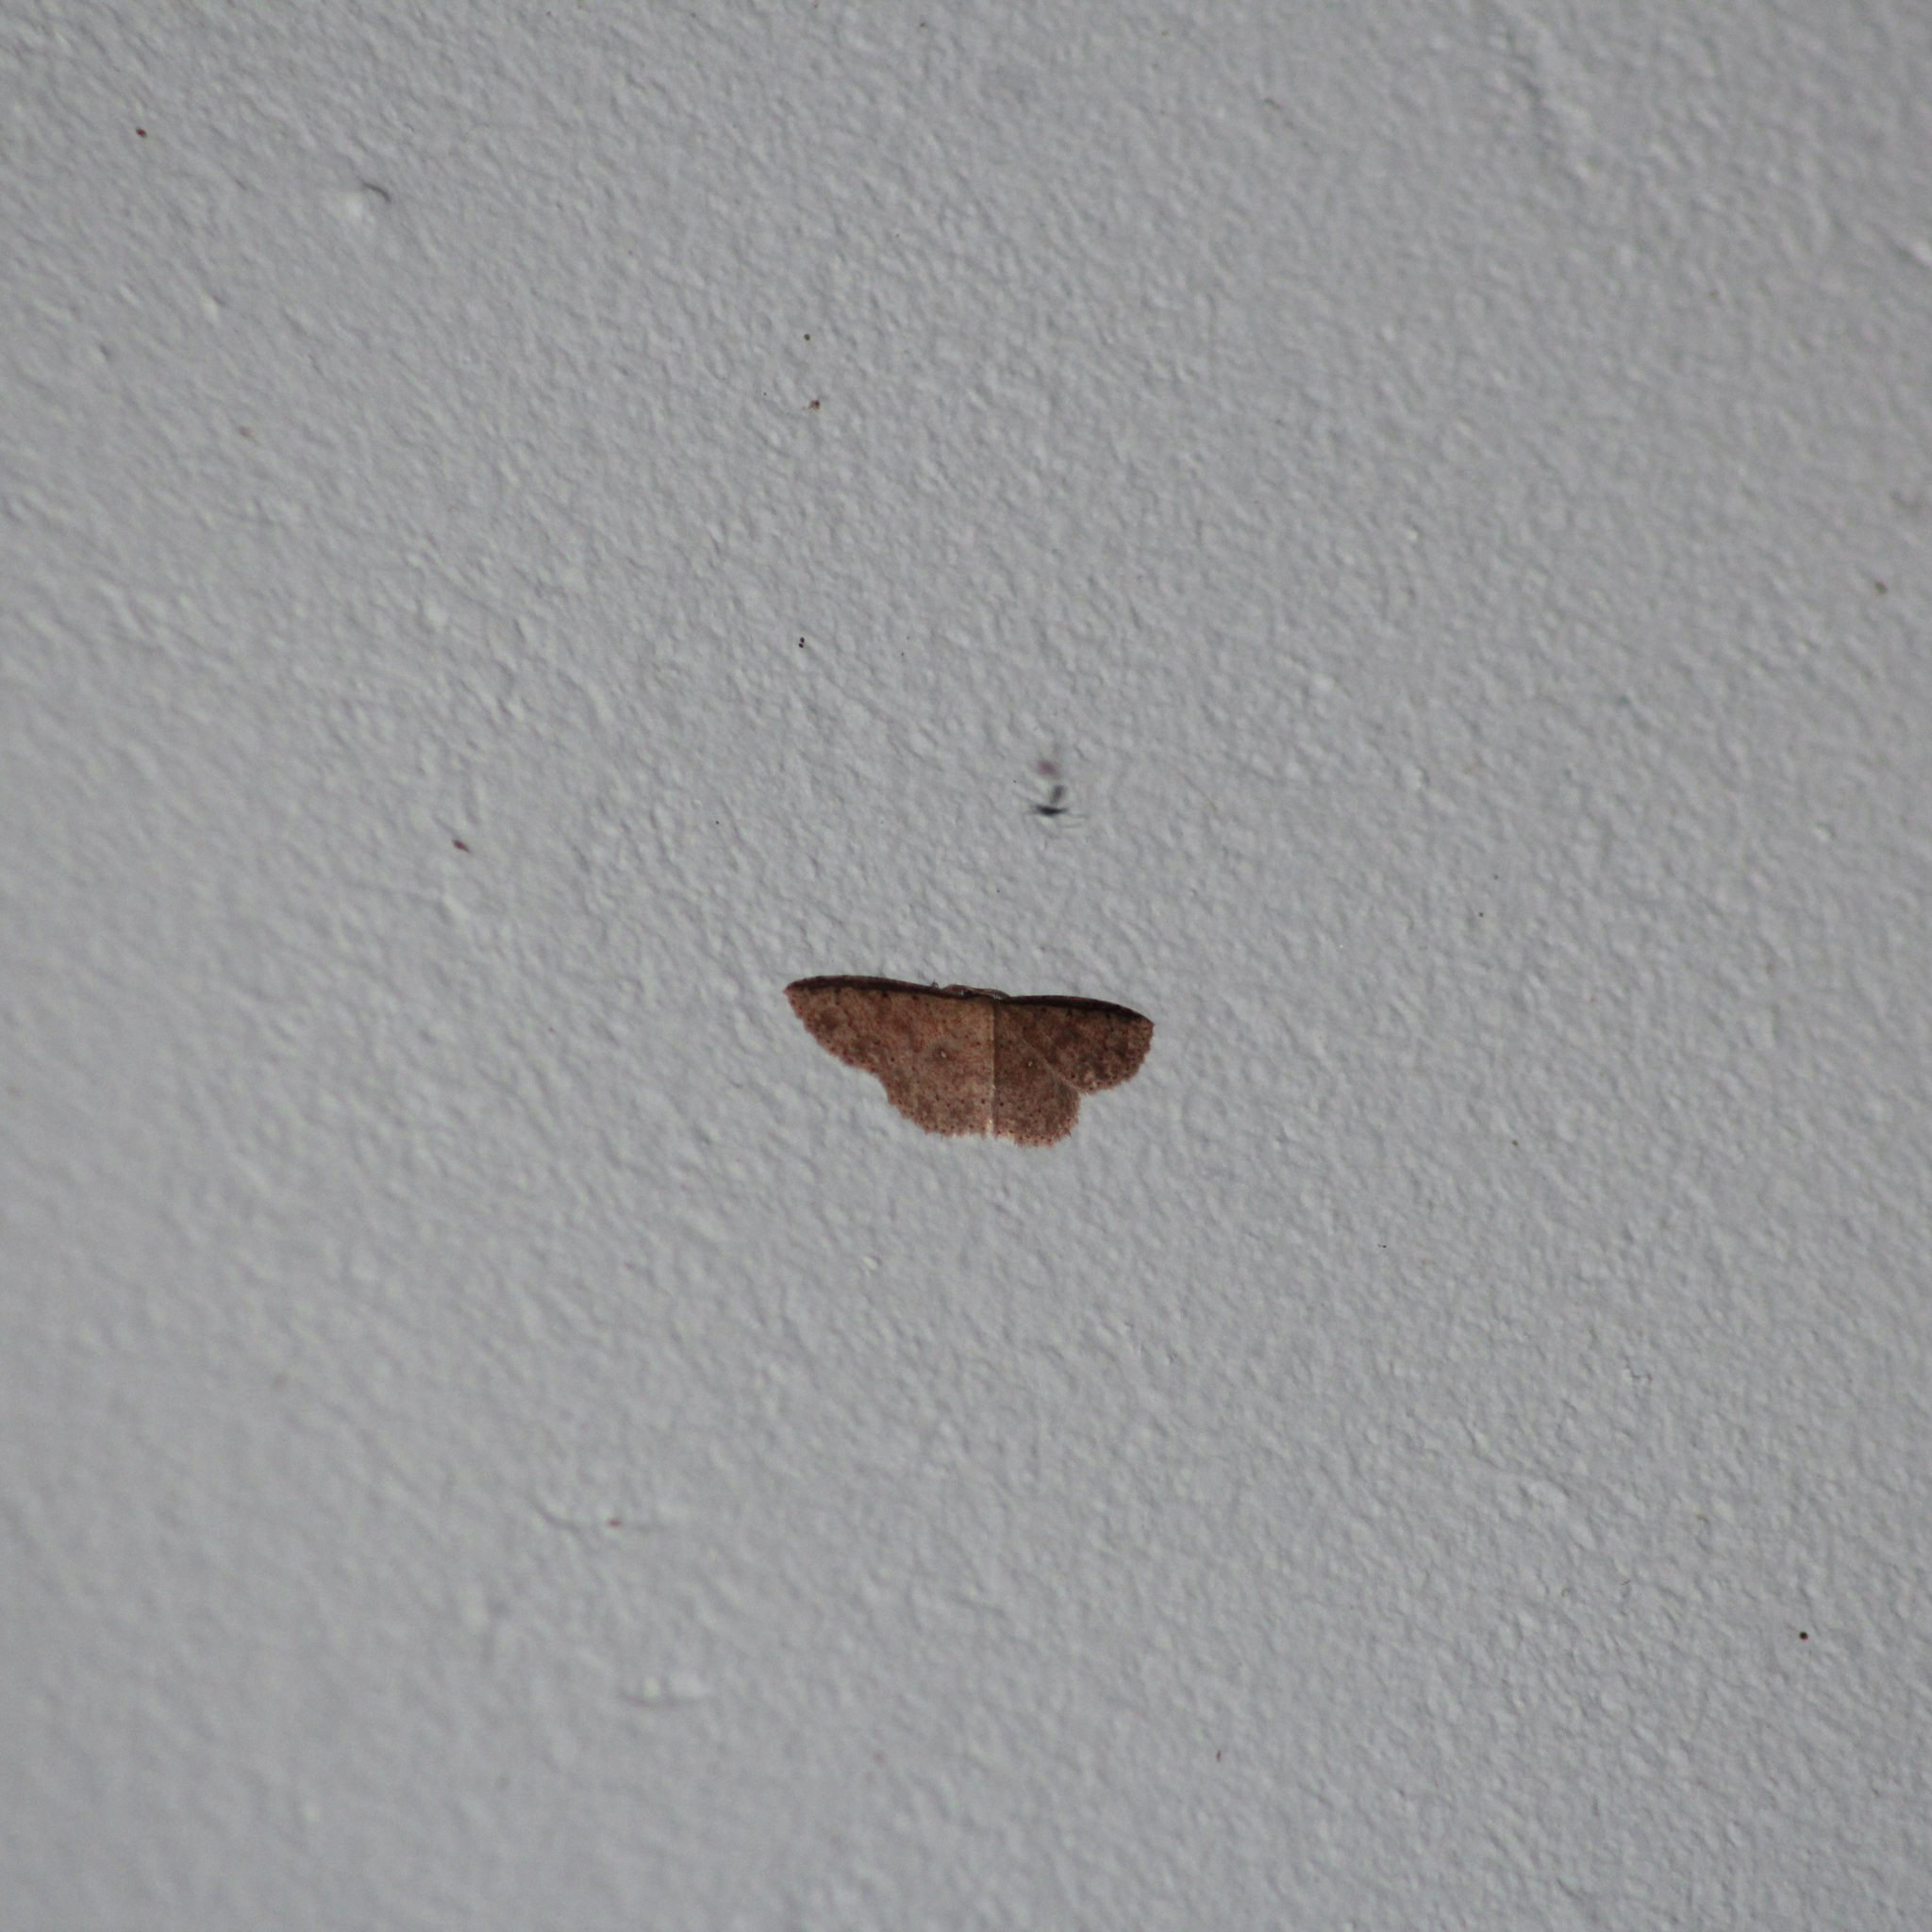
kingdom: Animalia
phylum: Arthropoda
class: Insecta
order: Lepidoptera
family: Geometridae
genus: Cyclophora
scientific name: Cyclophora urcearia
